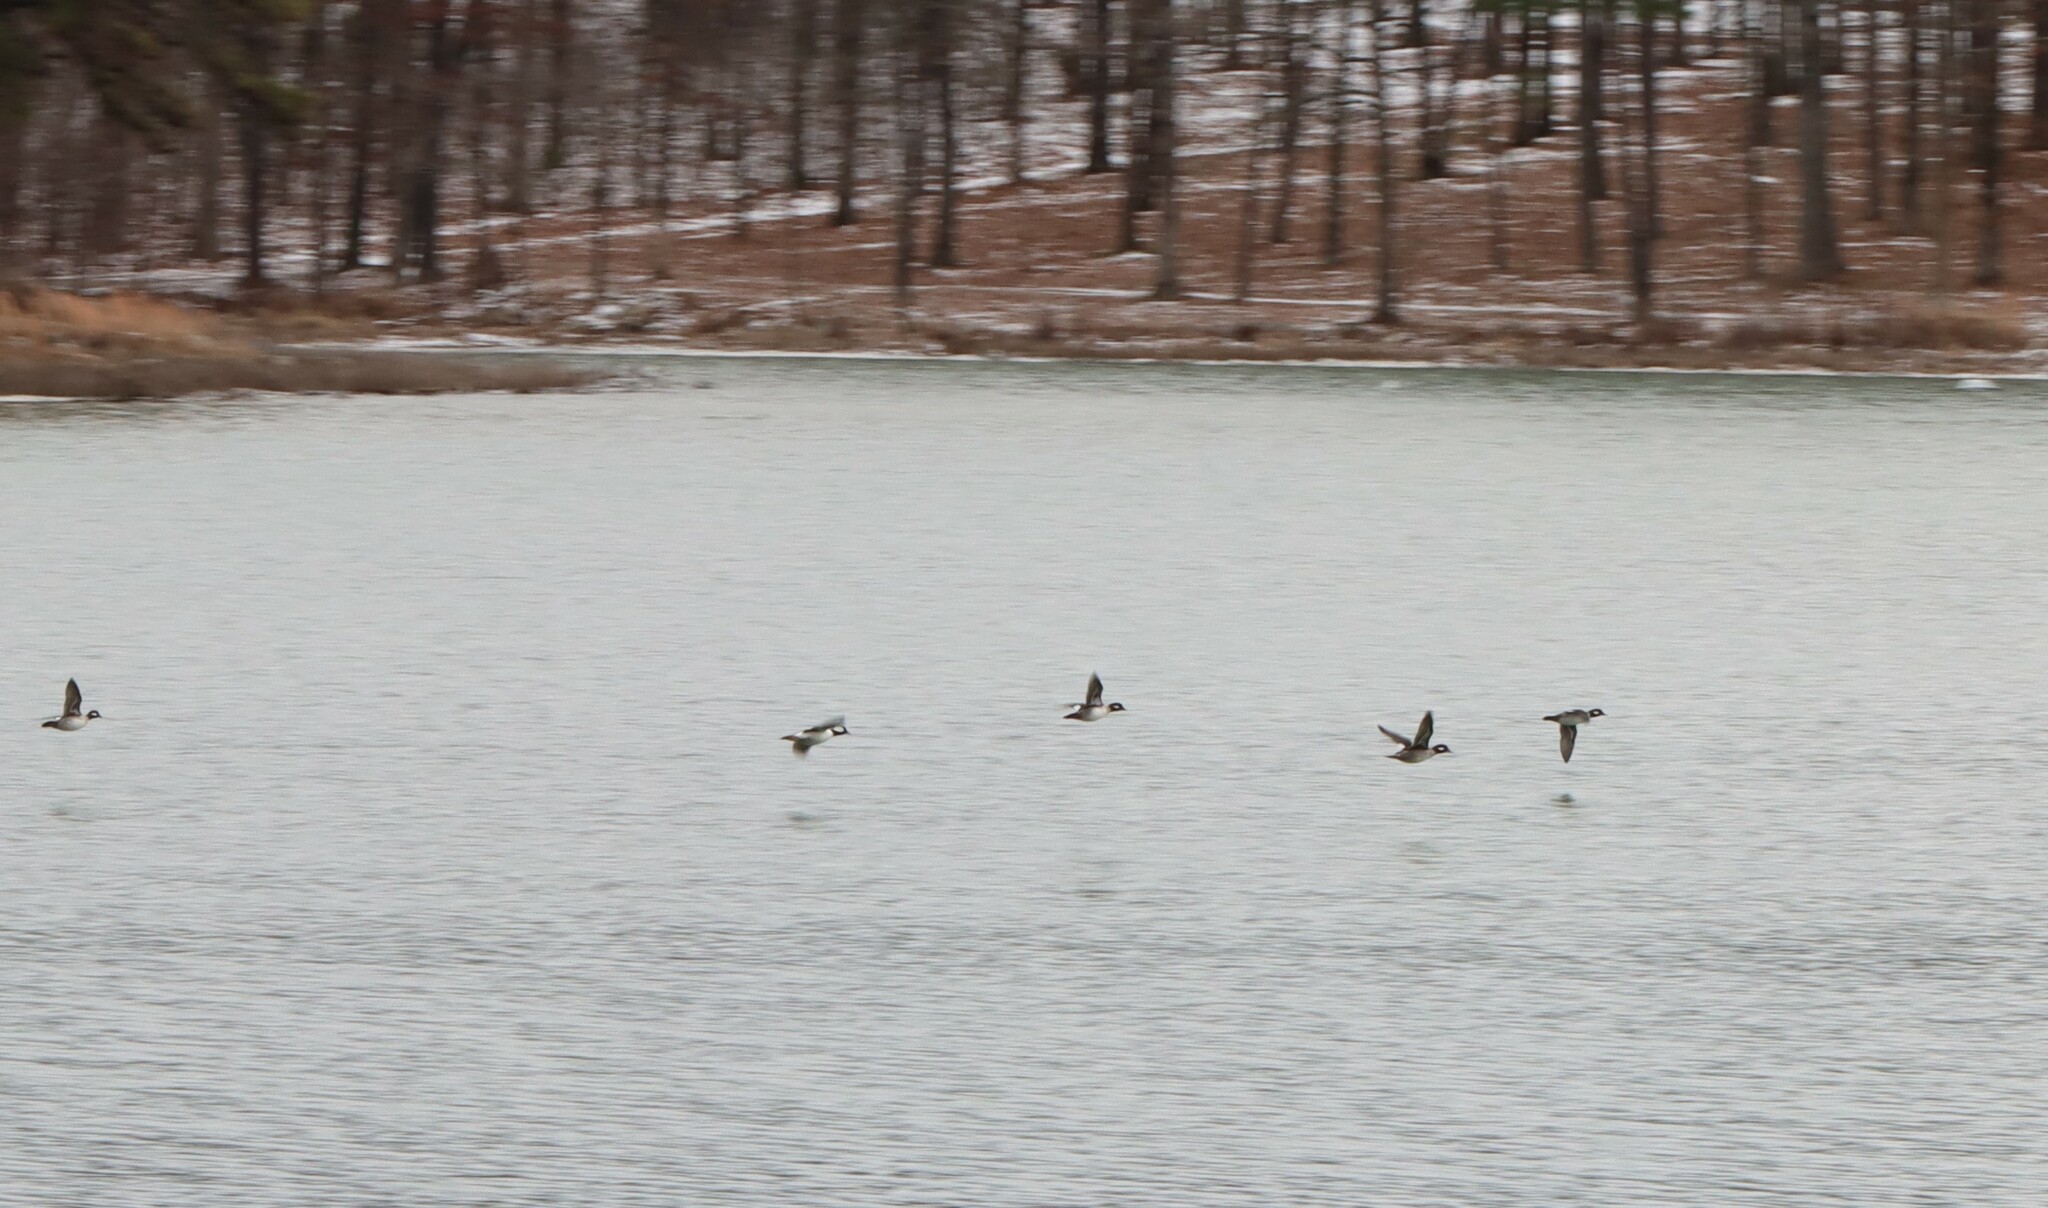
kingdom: Animalia
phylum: Chordata
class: Aves
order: Anseriformes
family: Anatidae
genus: Bucephala
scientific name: Bucephala albeola
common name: Bufflehead
